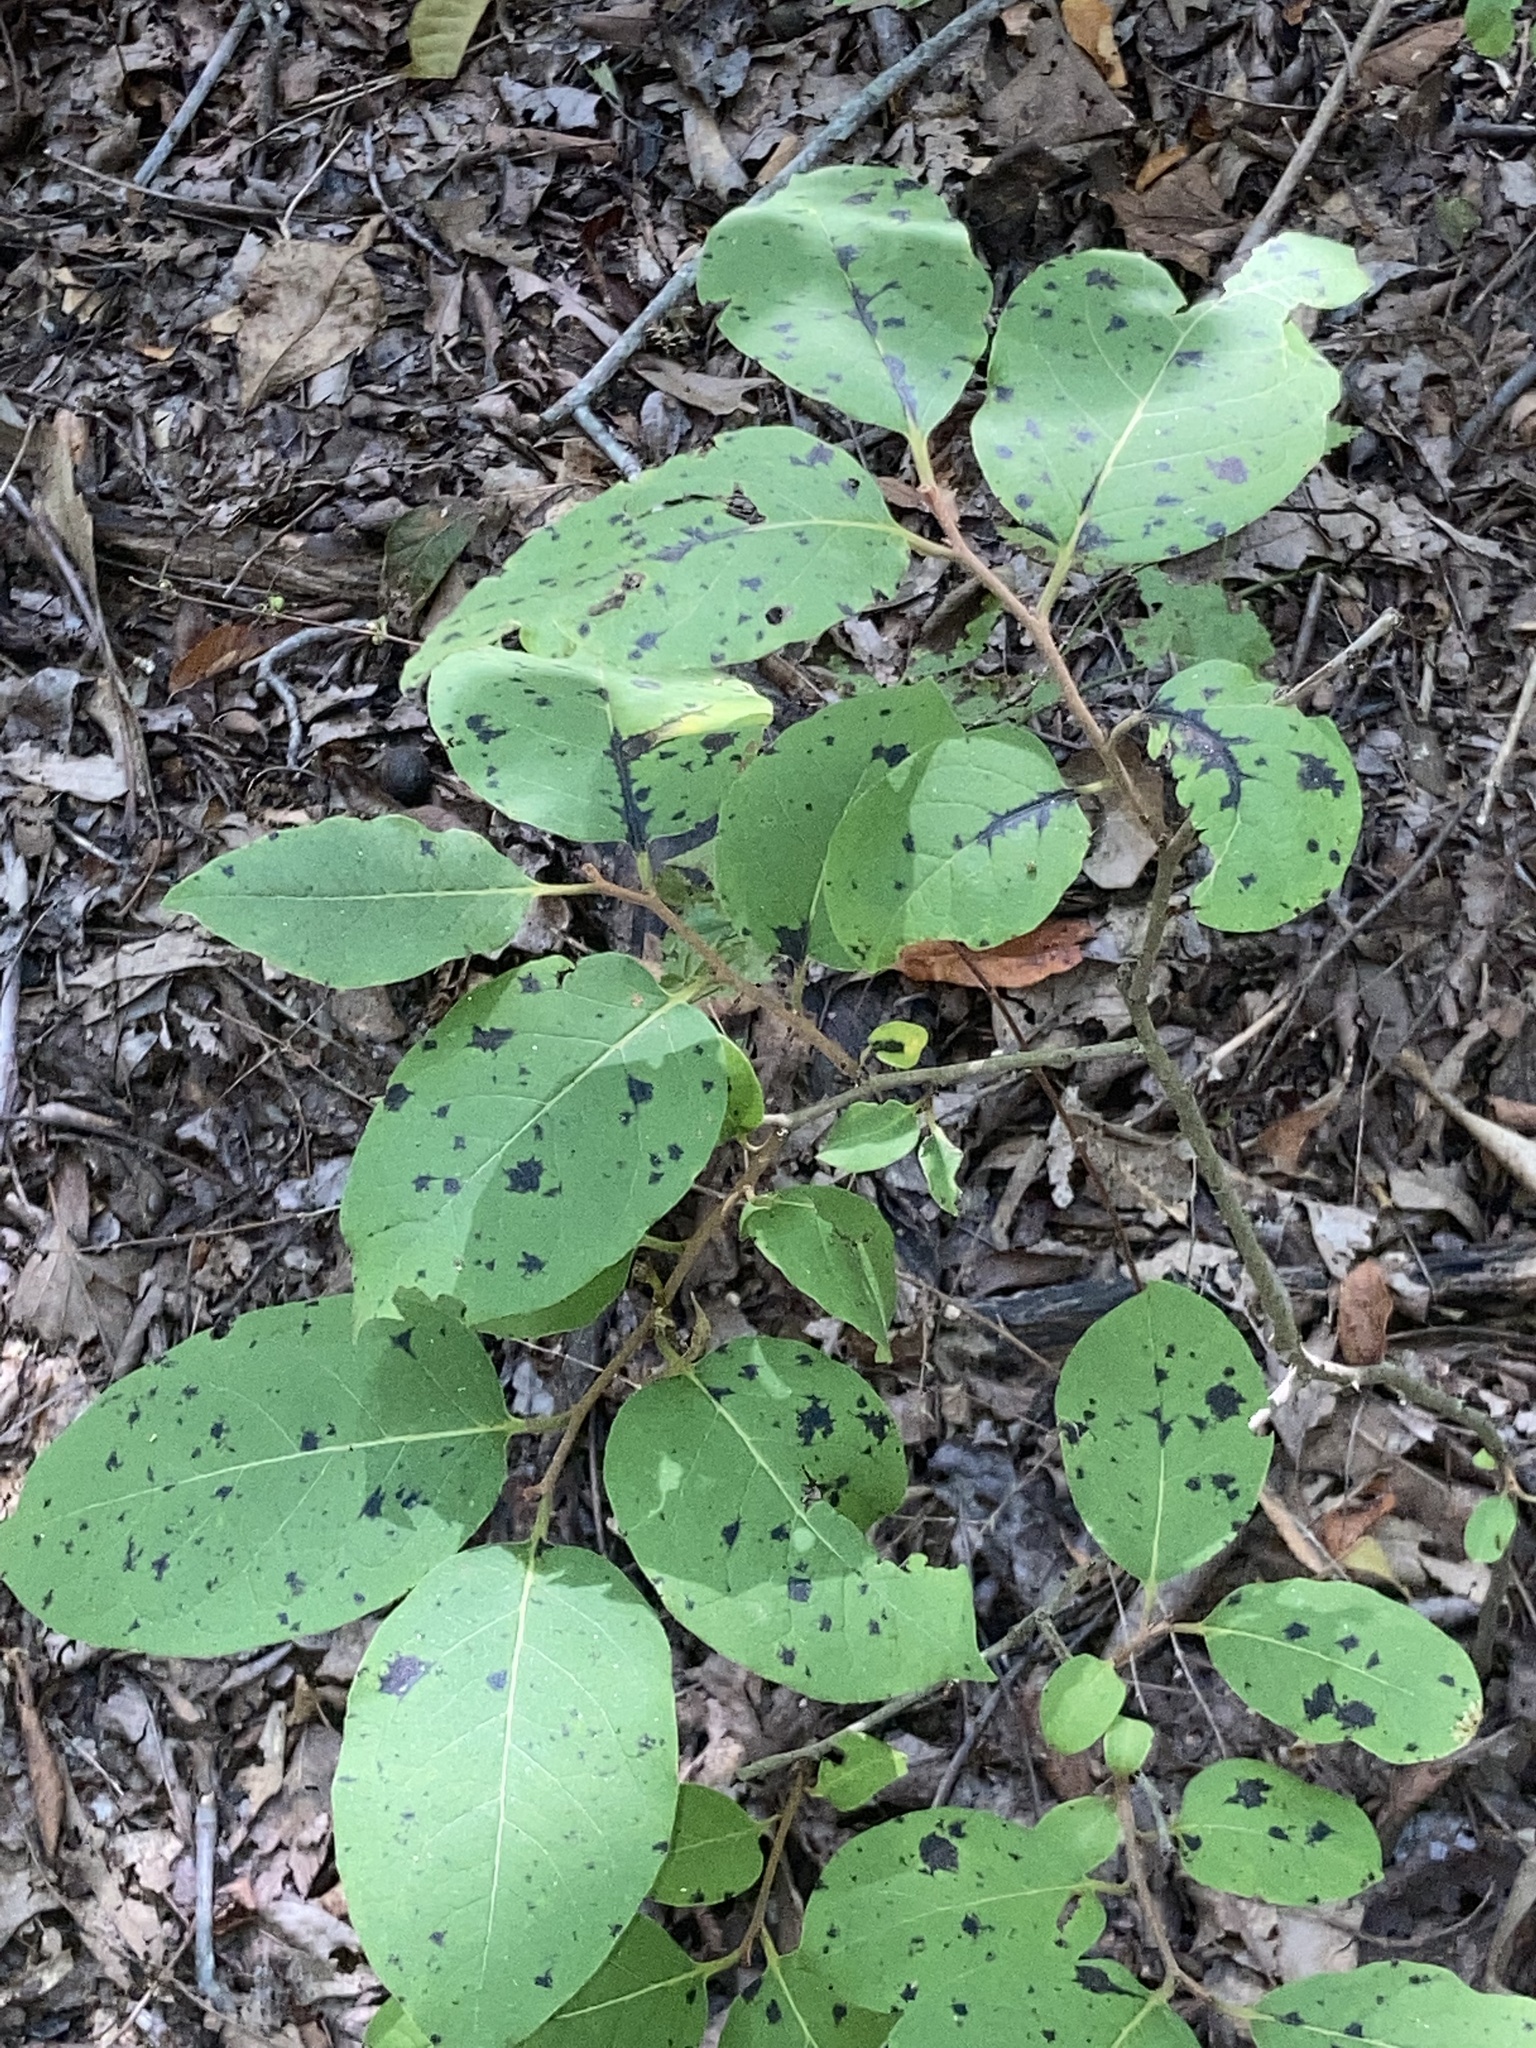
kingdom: Plantae
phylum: Tracheophyta
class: Magnoliopsida
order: Ericales
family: Ebenaceae
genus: Diospyros
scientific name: Diospyros virginiana
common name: Persimmon
